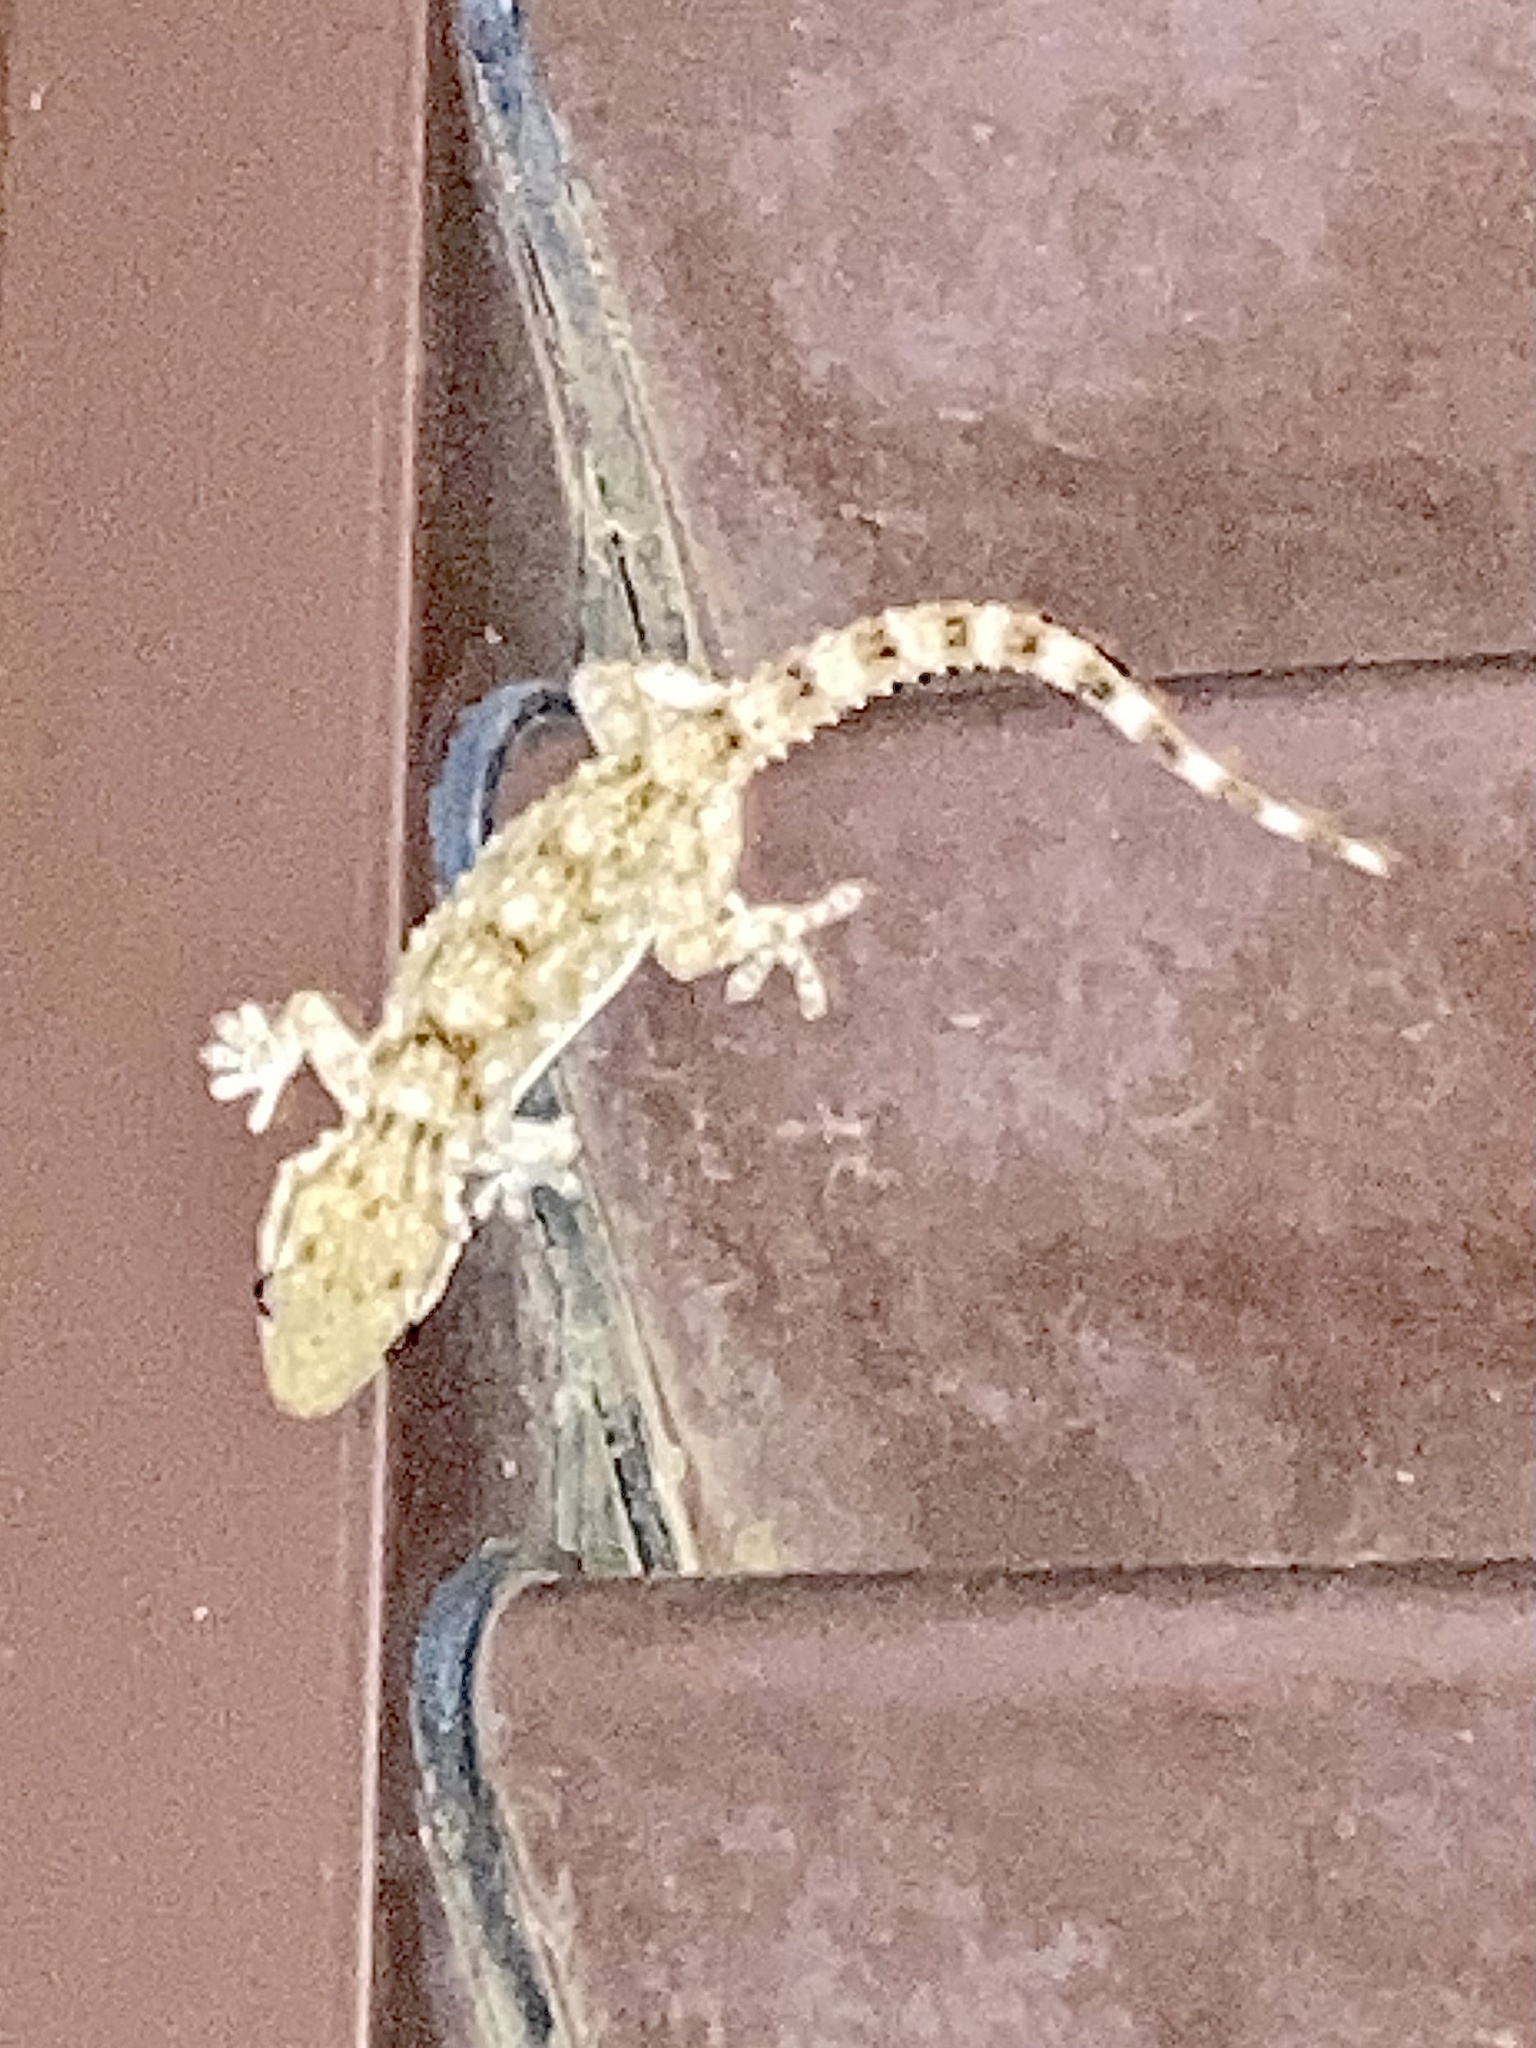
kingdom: Animalia
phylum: Chordata
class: Squamata
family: Phyllodactylidae
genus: Tarentola
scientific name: Tarentola mauritanica
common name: Moorish gecko
